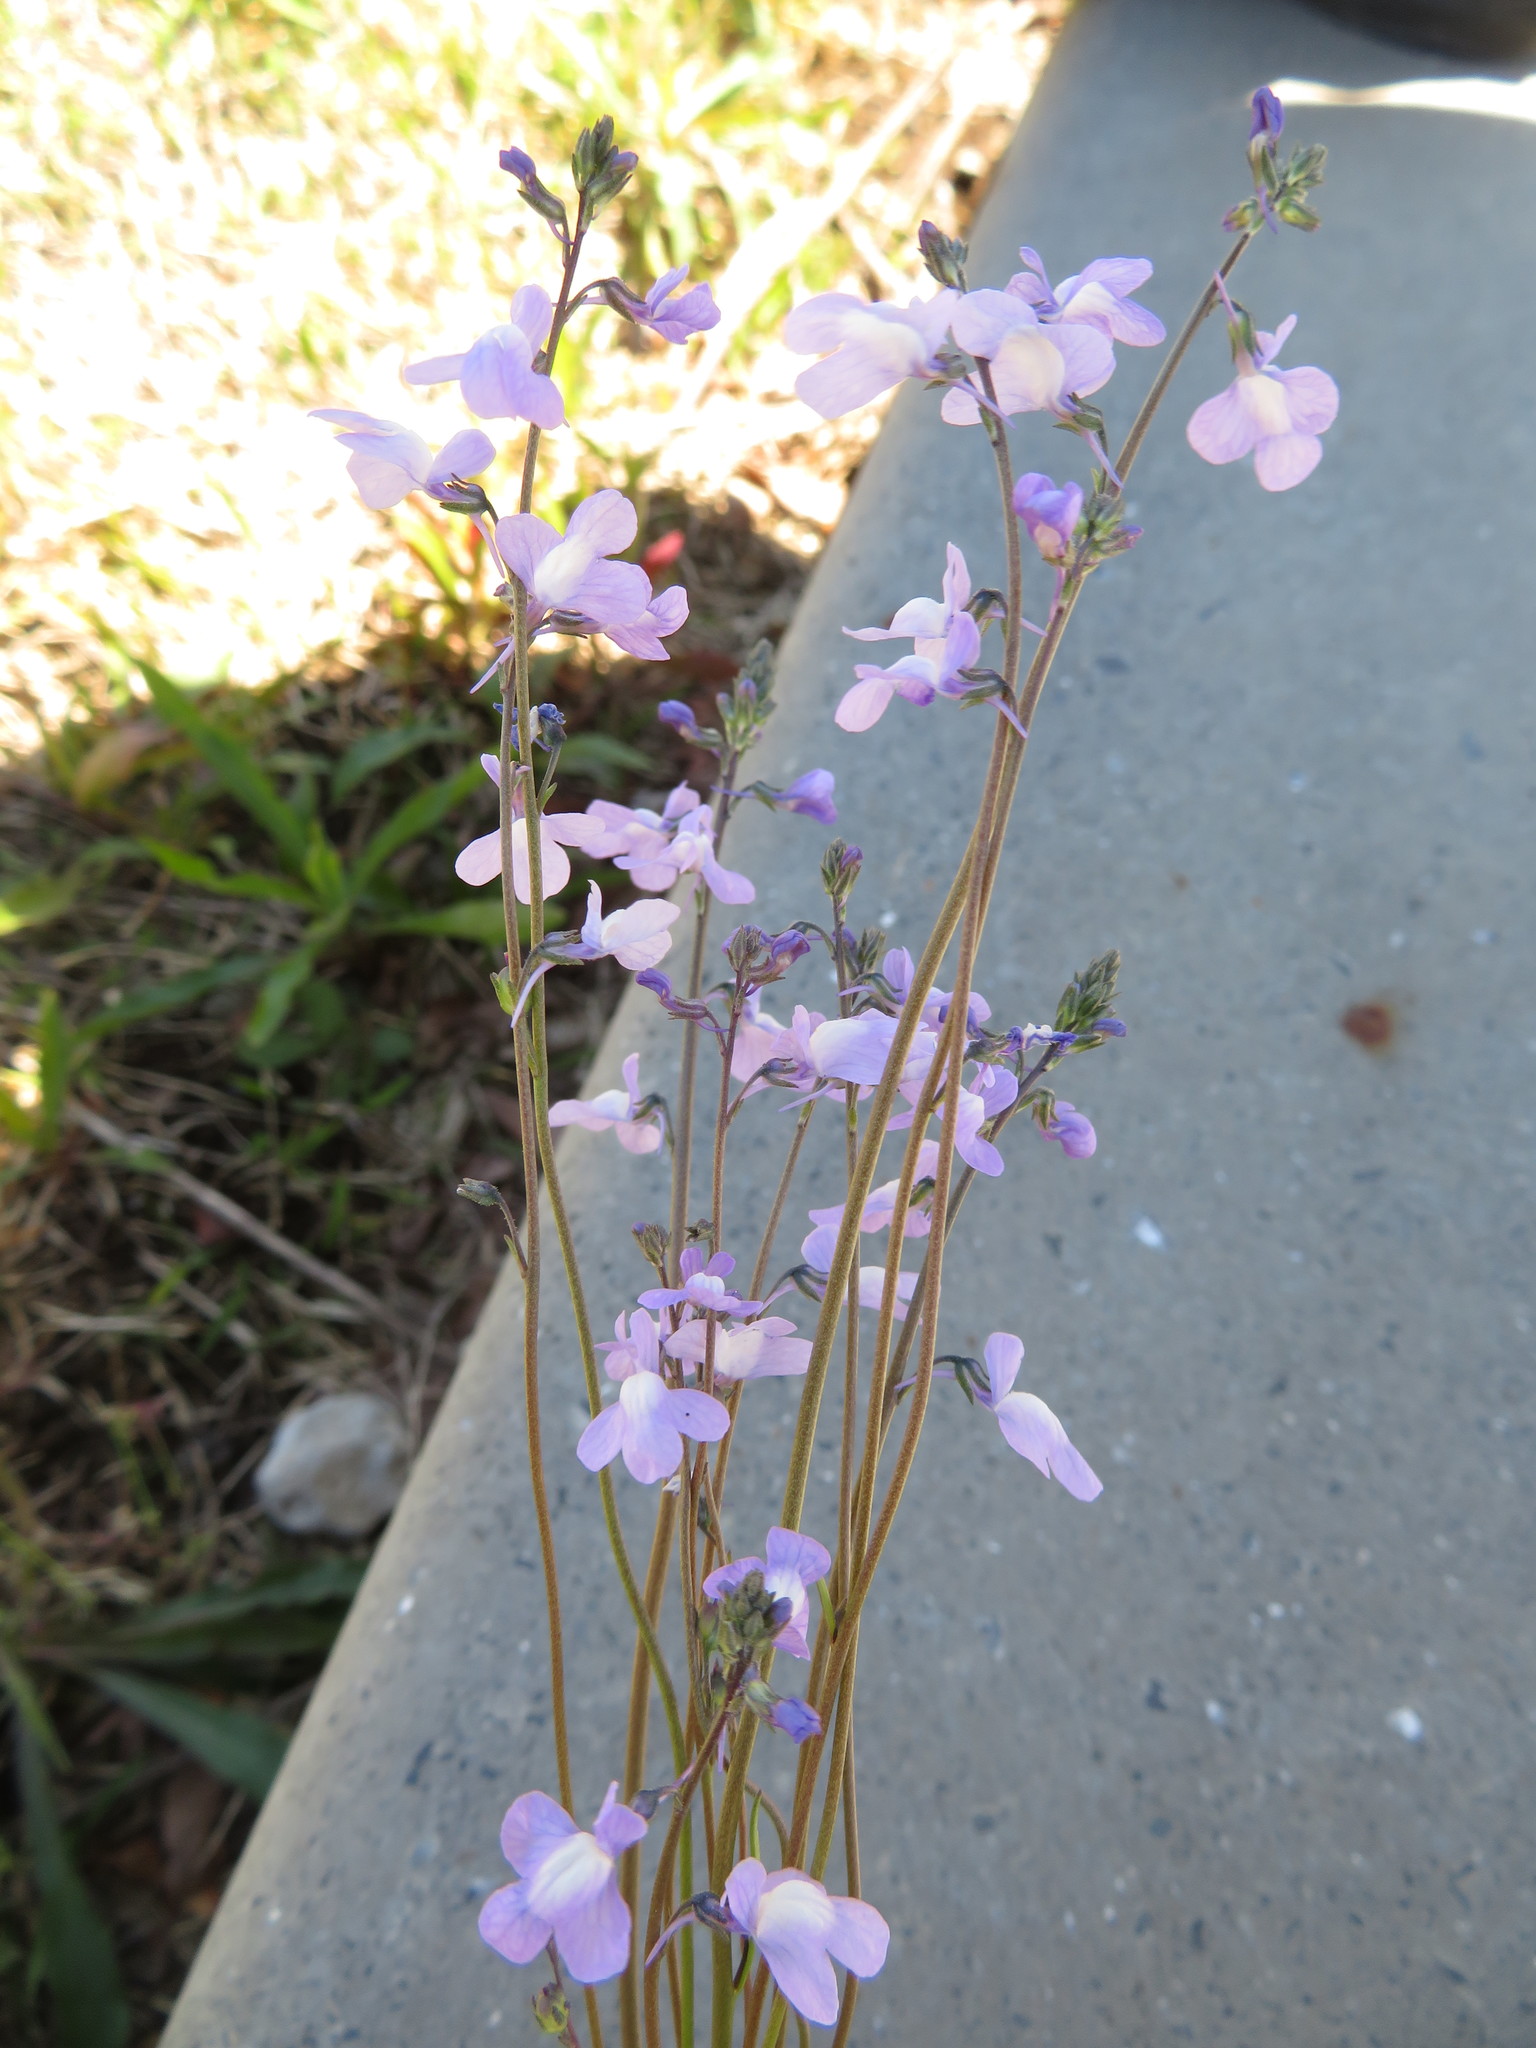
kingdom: Plantae
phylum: Tracheophyta
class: Magnoliopsida
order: Lamiales
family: Plantaginaceae
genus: Nuttallanthus
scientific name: Nuttallanthus canadensis
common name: Blue toadflax
